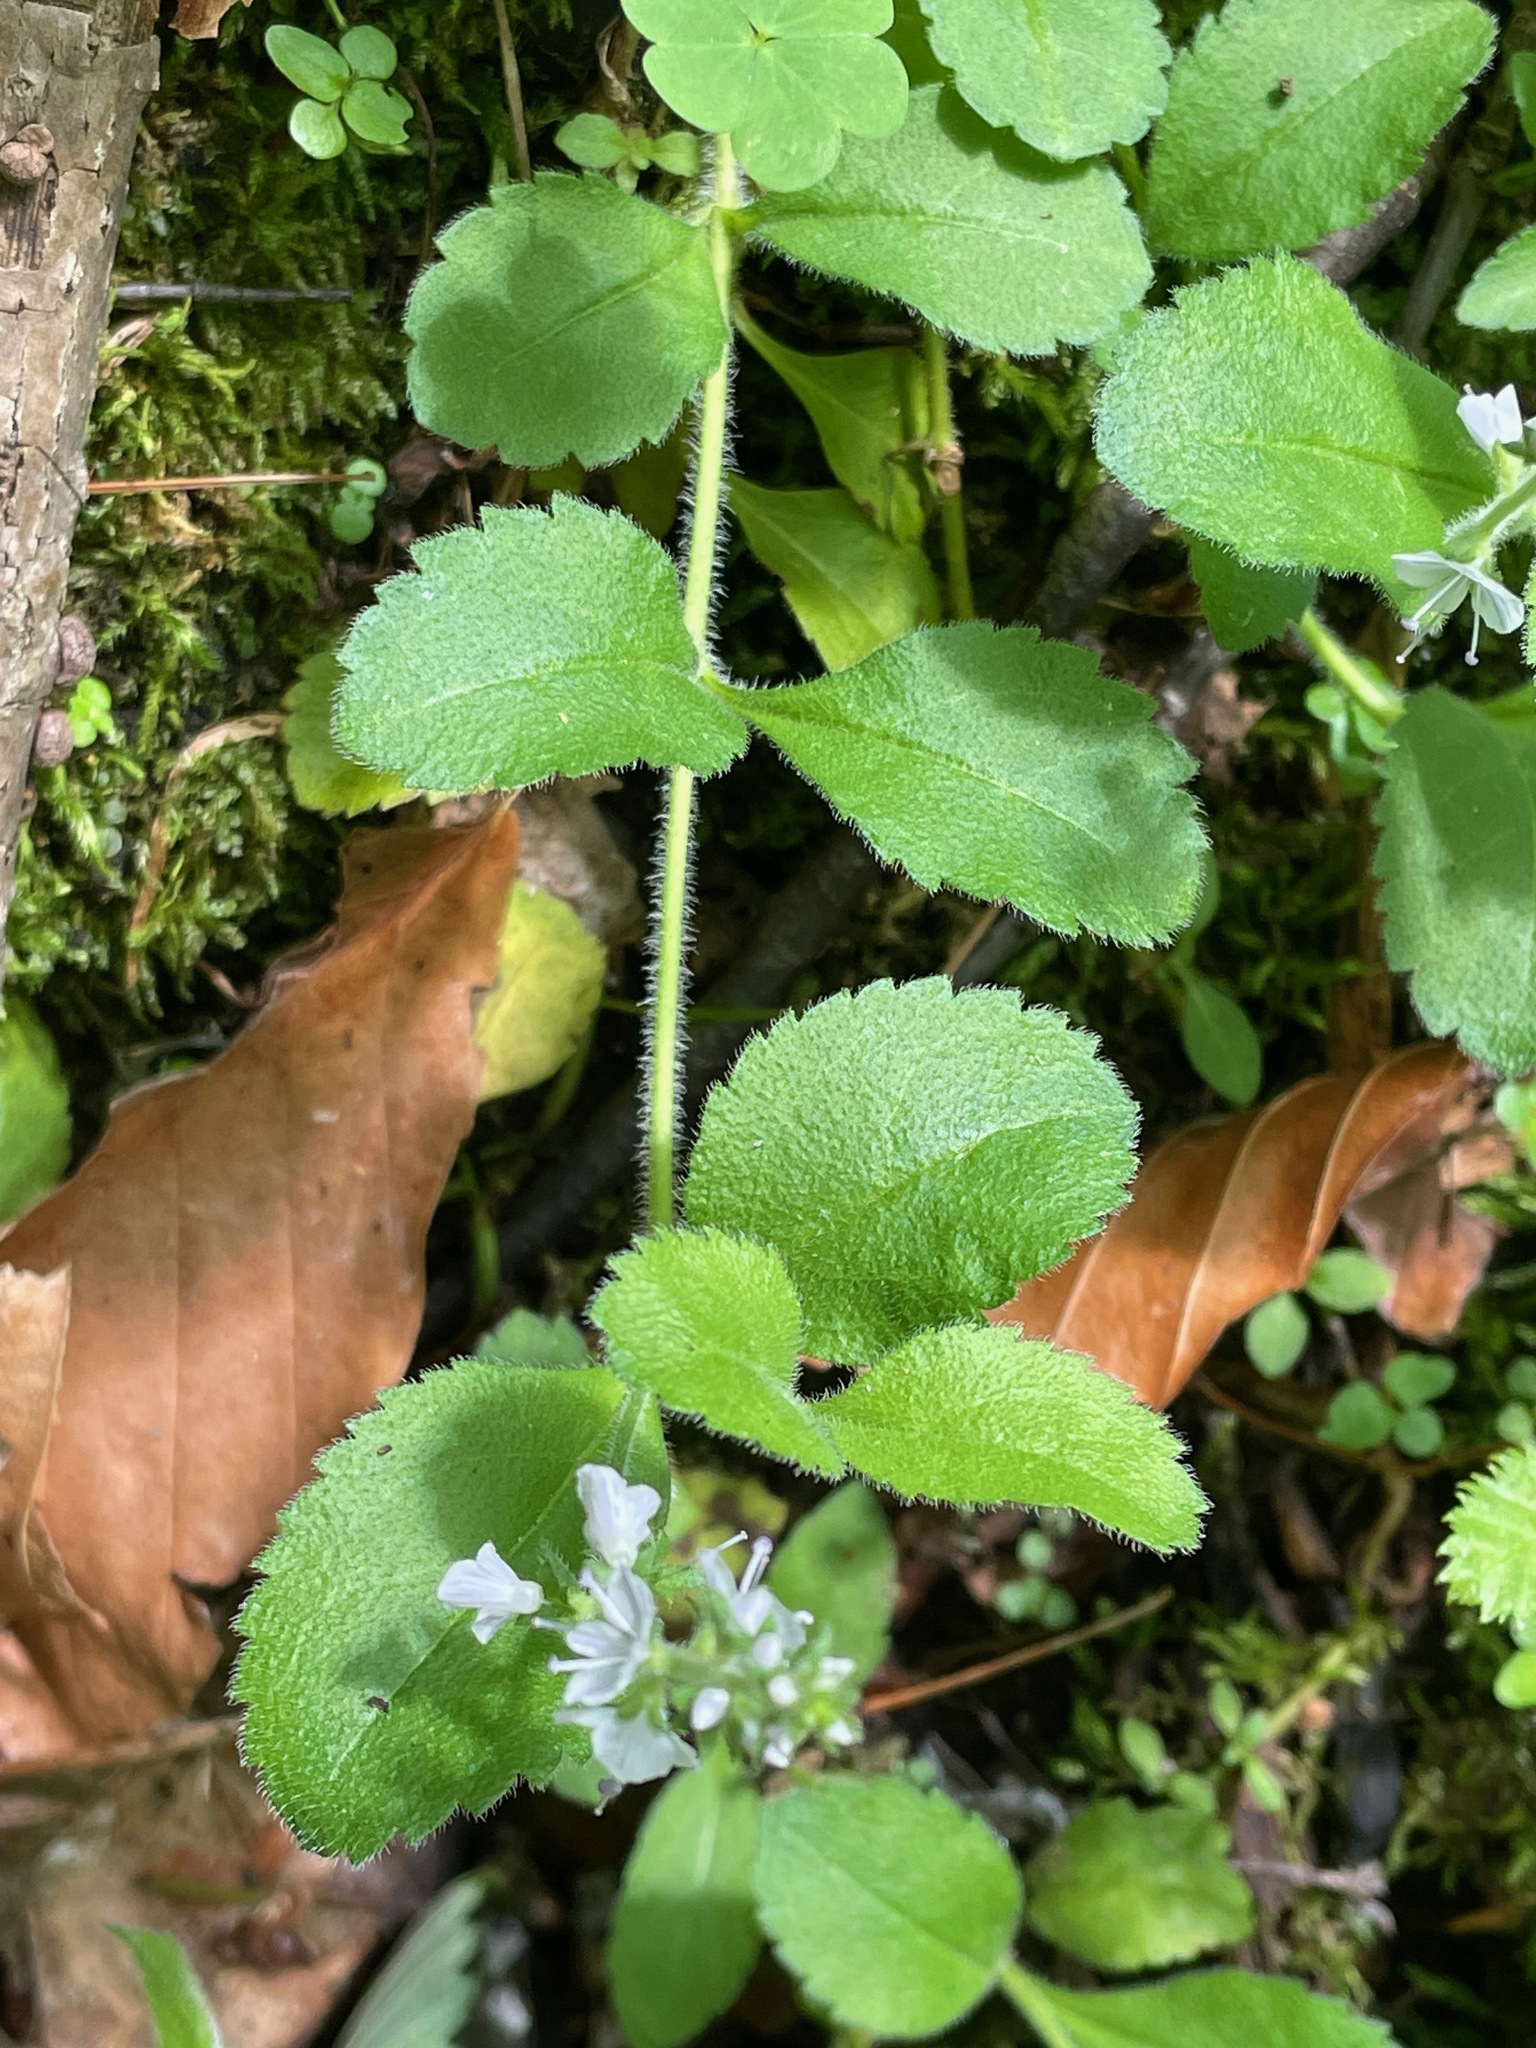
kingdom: Plantae
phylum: Tracheophyta
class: Magnoliopsida
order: Lamiales
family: Plantaginaceae
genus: Veronica
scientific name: Veronica officinalis
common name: Common speedwell
